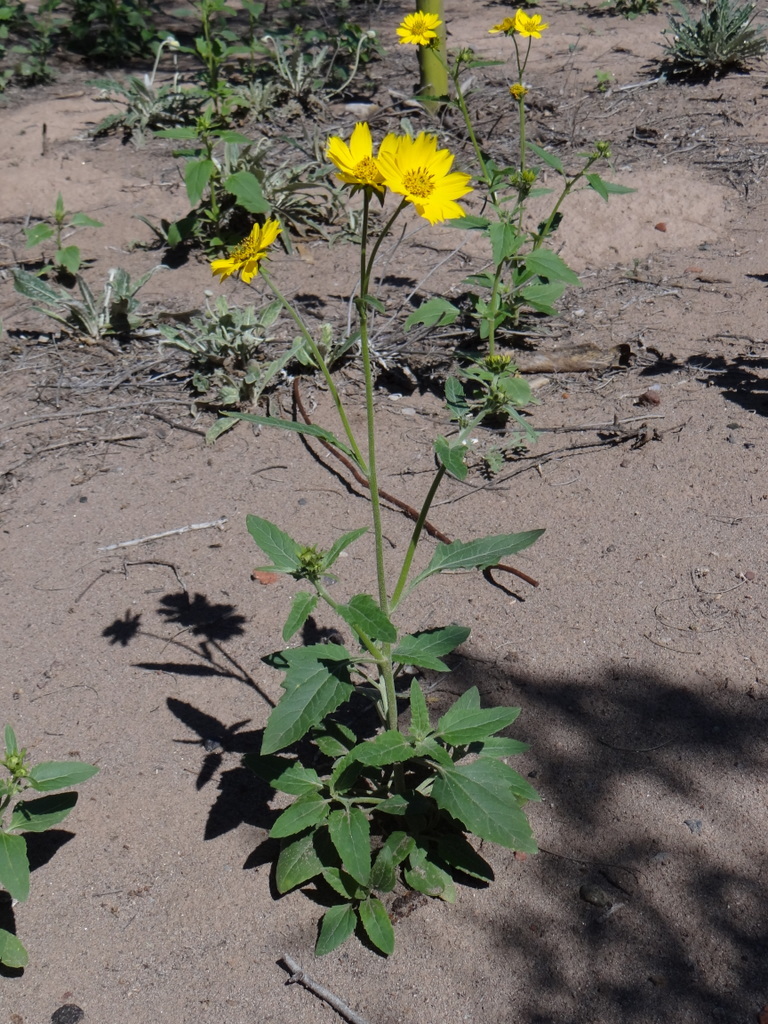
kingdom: Plantae
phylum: Tracheophyta
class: Magnoliopsida
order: Asterales
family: Asteraceae
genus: Verbesina
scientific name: Verbesina encelioides
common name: Golden crownbeard
